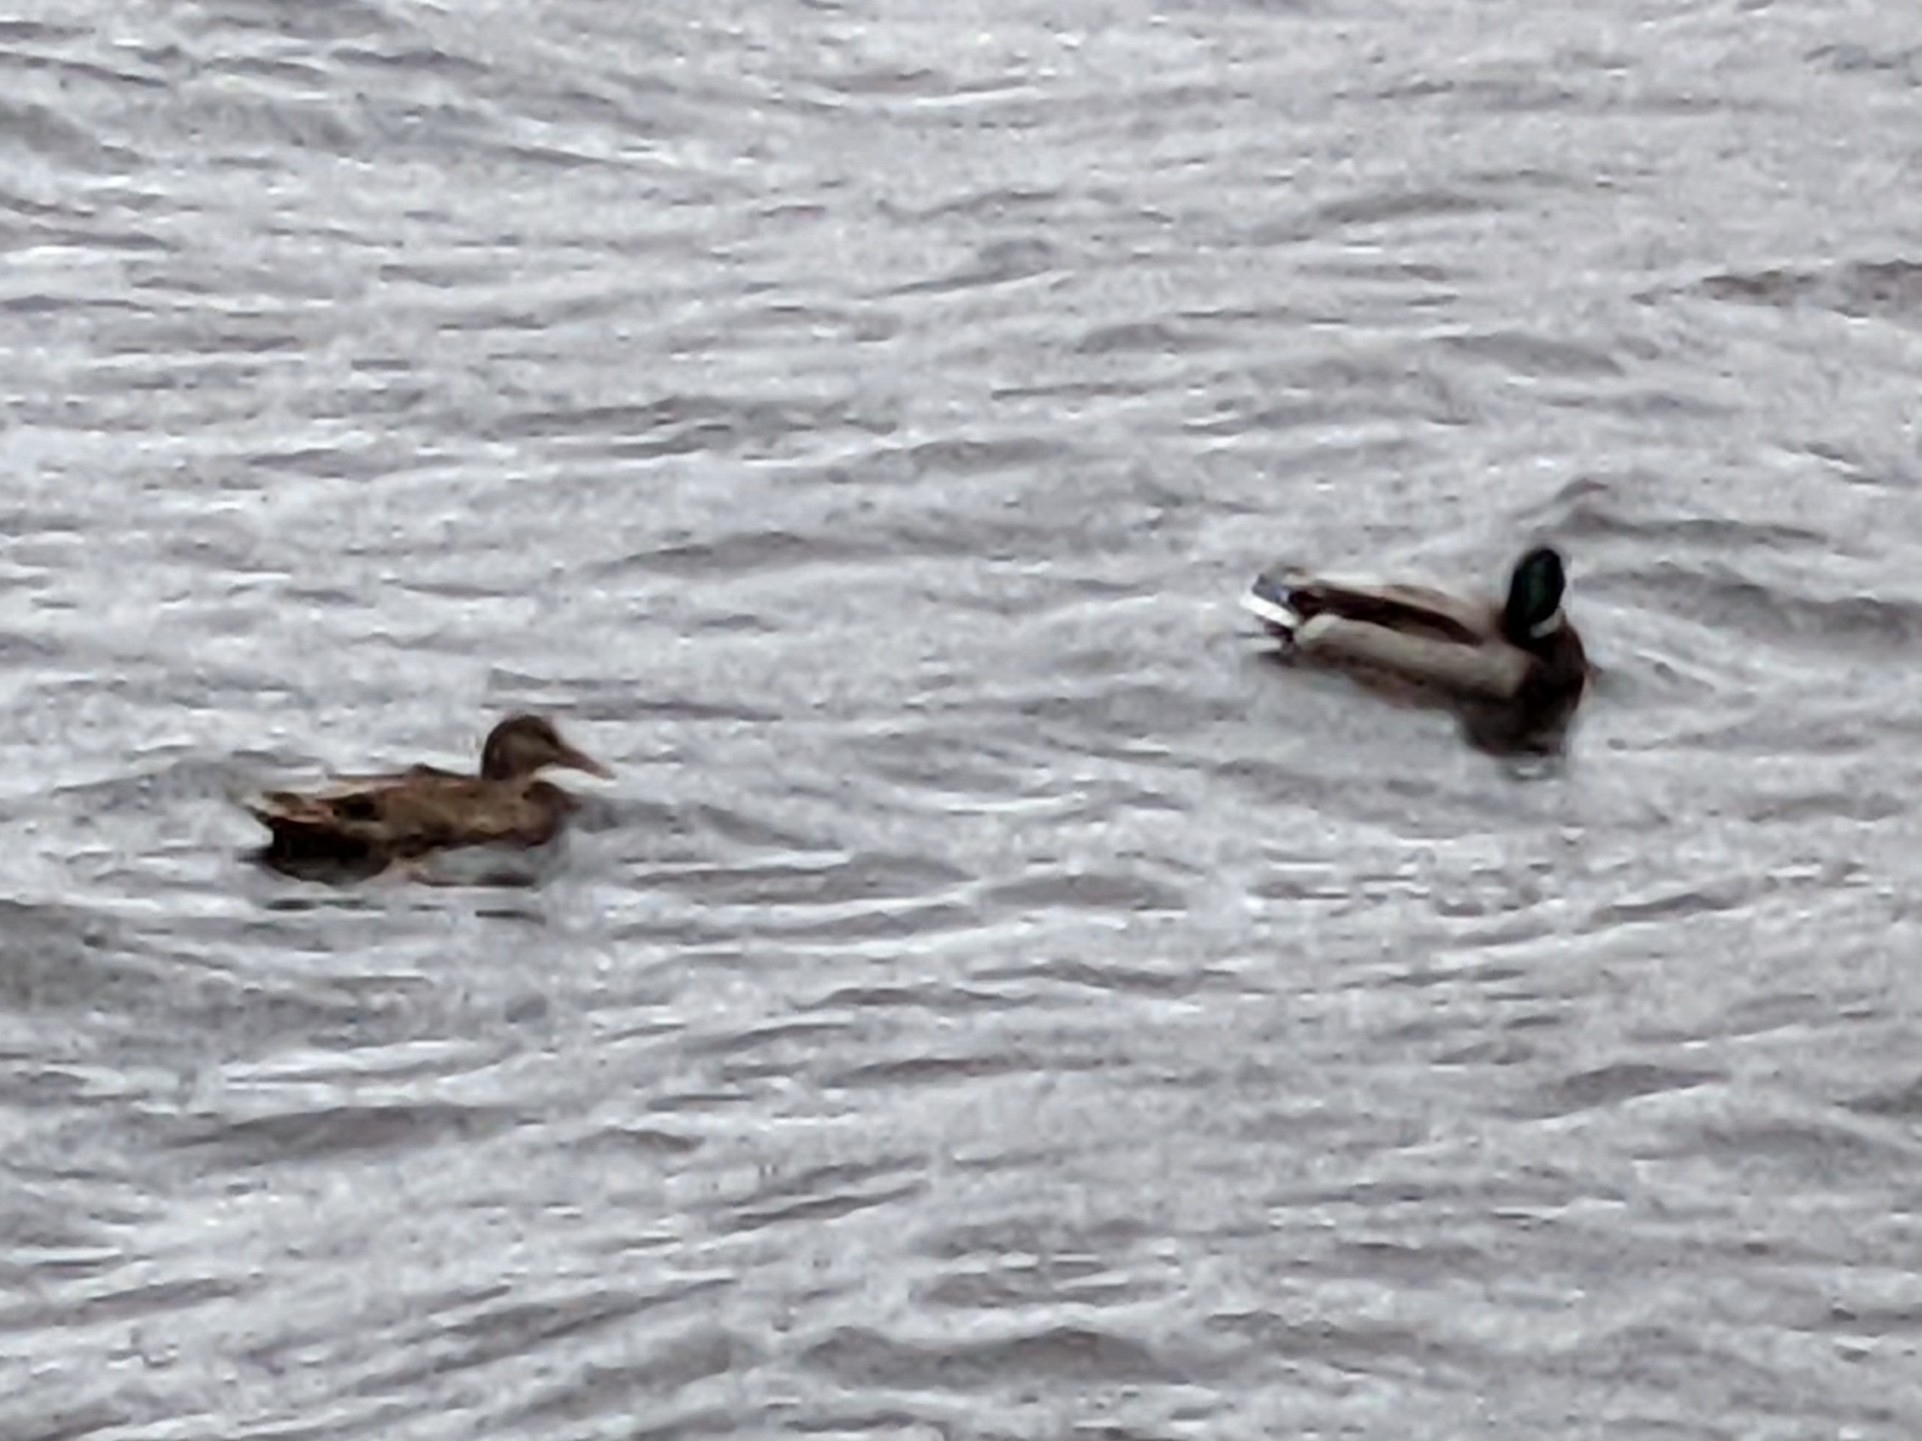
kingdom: Animalia
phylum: Chordata
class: Aves
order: Anseriformes
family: Anatidae
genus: Anas
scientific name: Anas platyrhynchos
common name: Mallard
